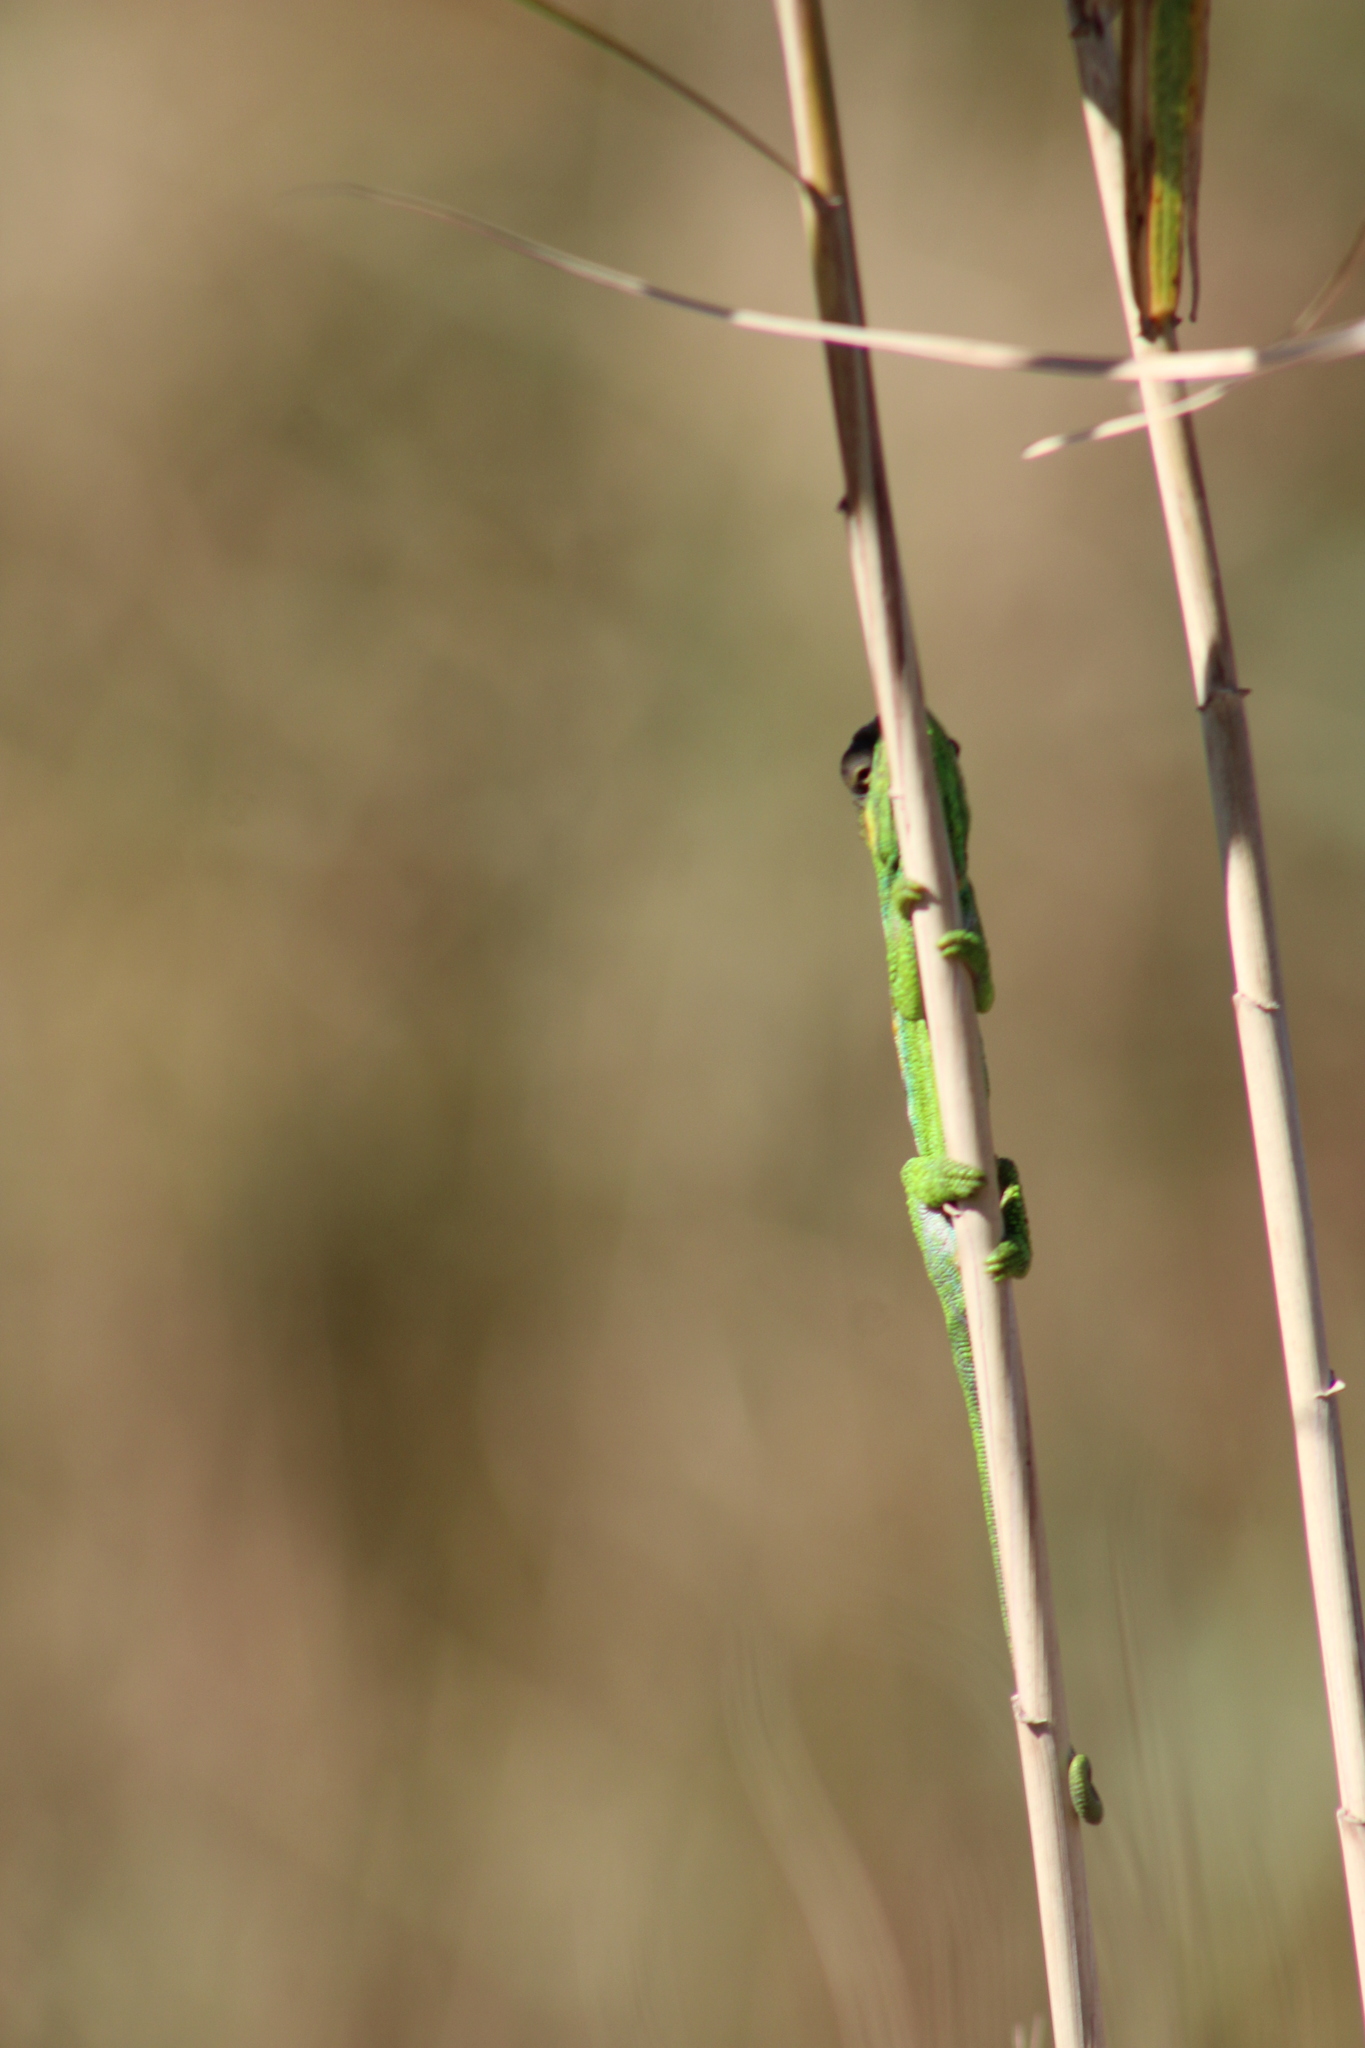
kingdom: Animalia
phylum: Chordata
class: Squamata
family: Chamaeleonidae
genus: Bradypodion
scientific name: Bradypodion pumilum
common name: Cape dwarf chameleon
